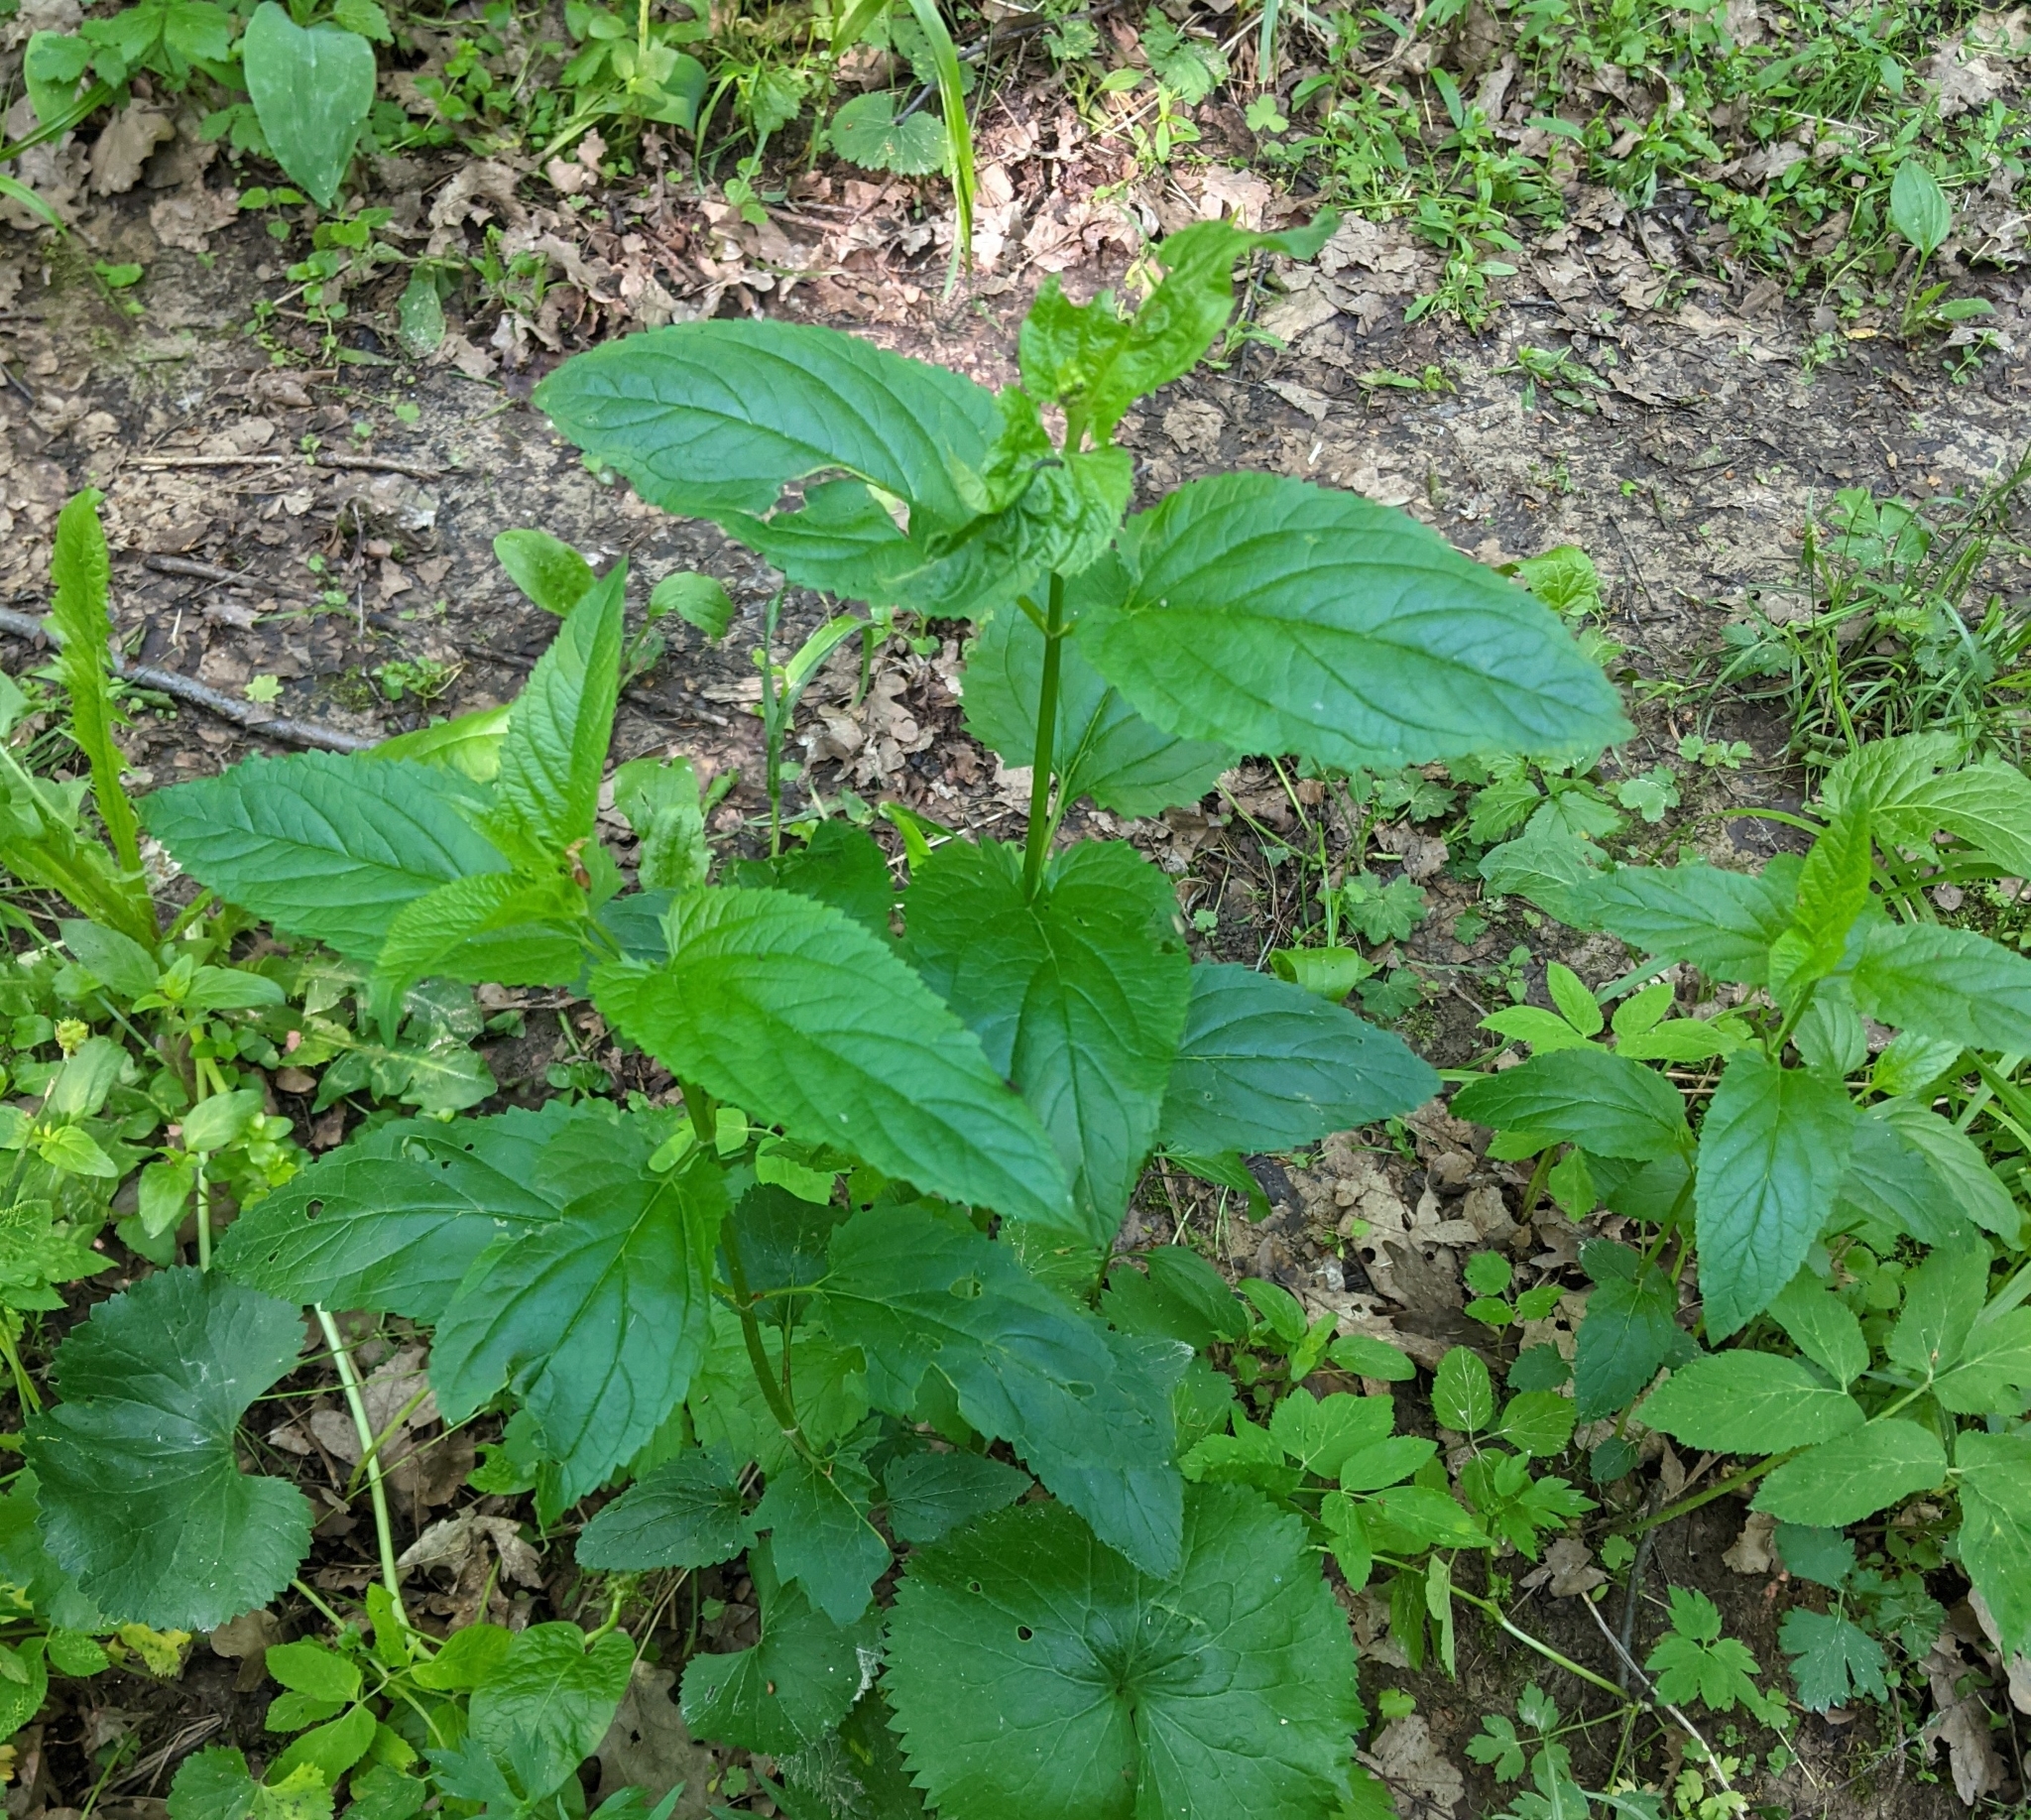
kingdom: Plantae
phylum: Tracheophyta
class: Magnoliopsida
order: Lamiales
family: Scrophulariaceae
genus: Scrophularia
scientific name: Scrophularia nodosa
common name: Common figwort
